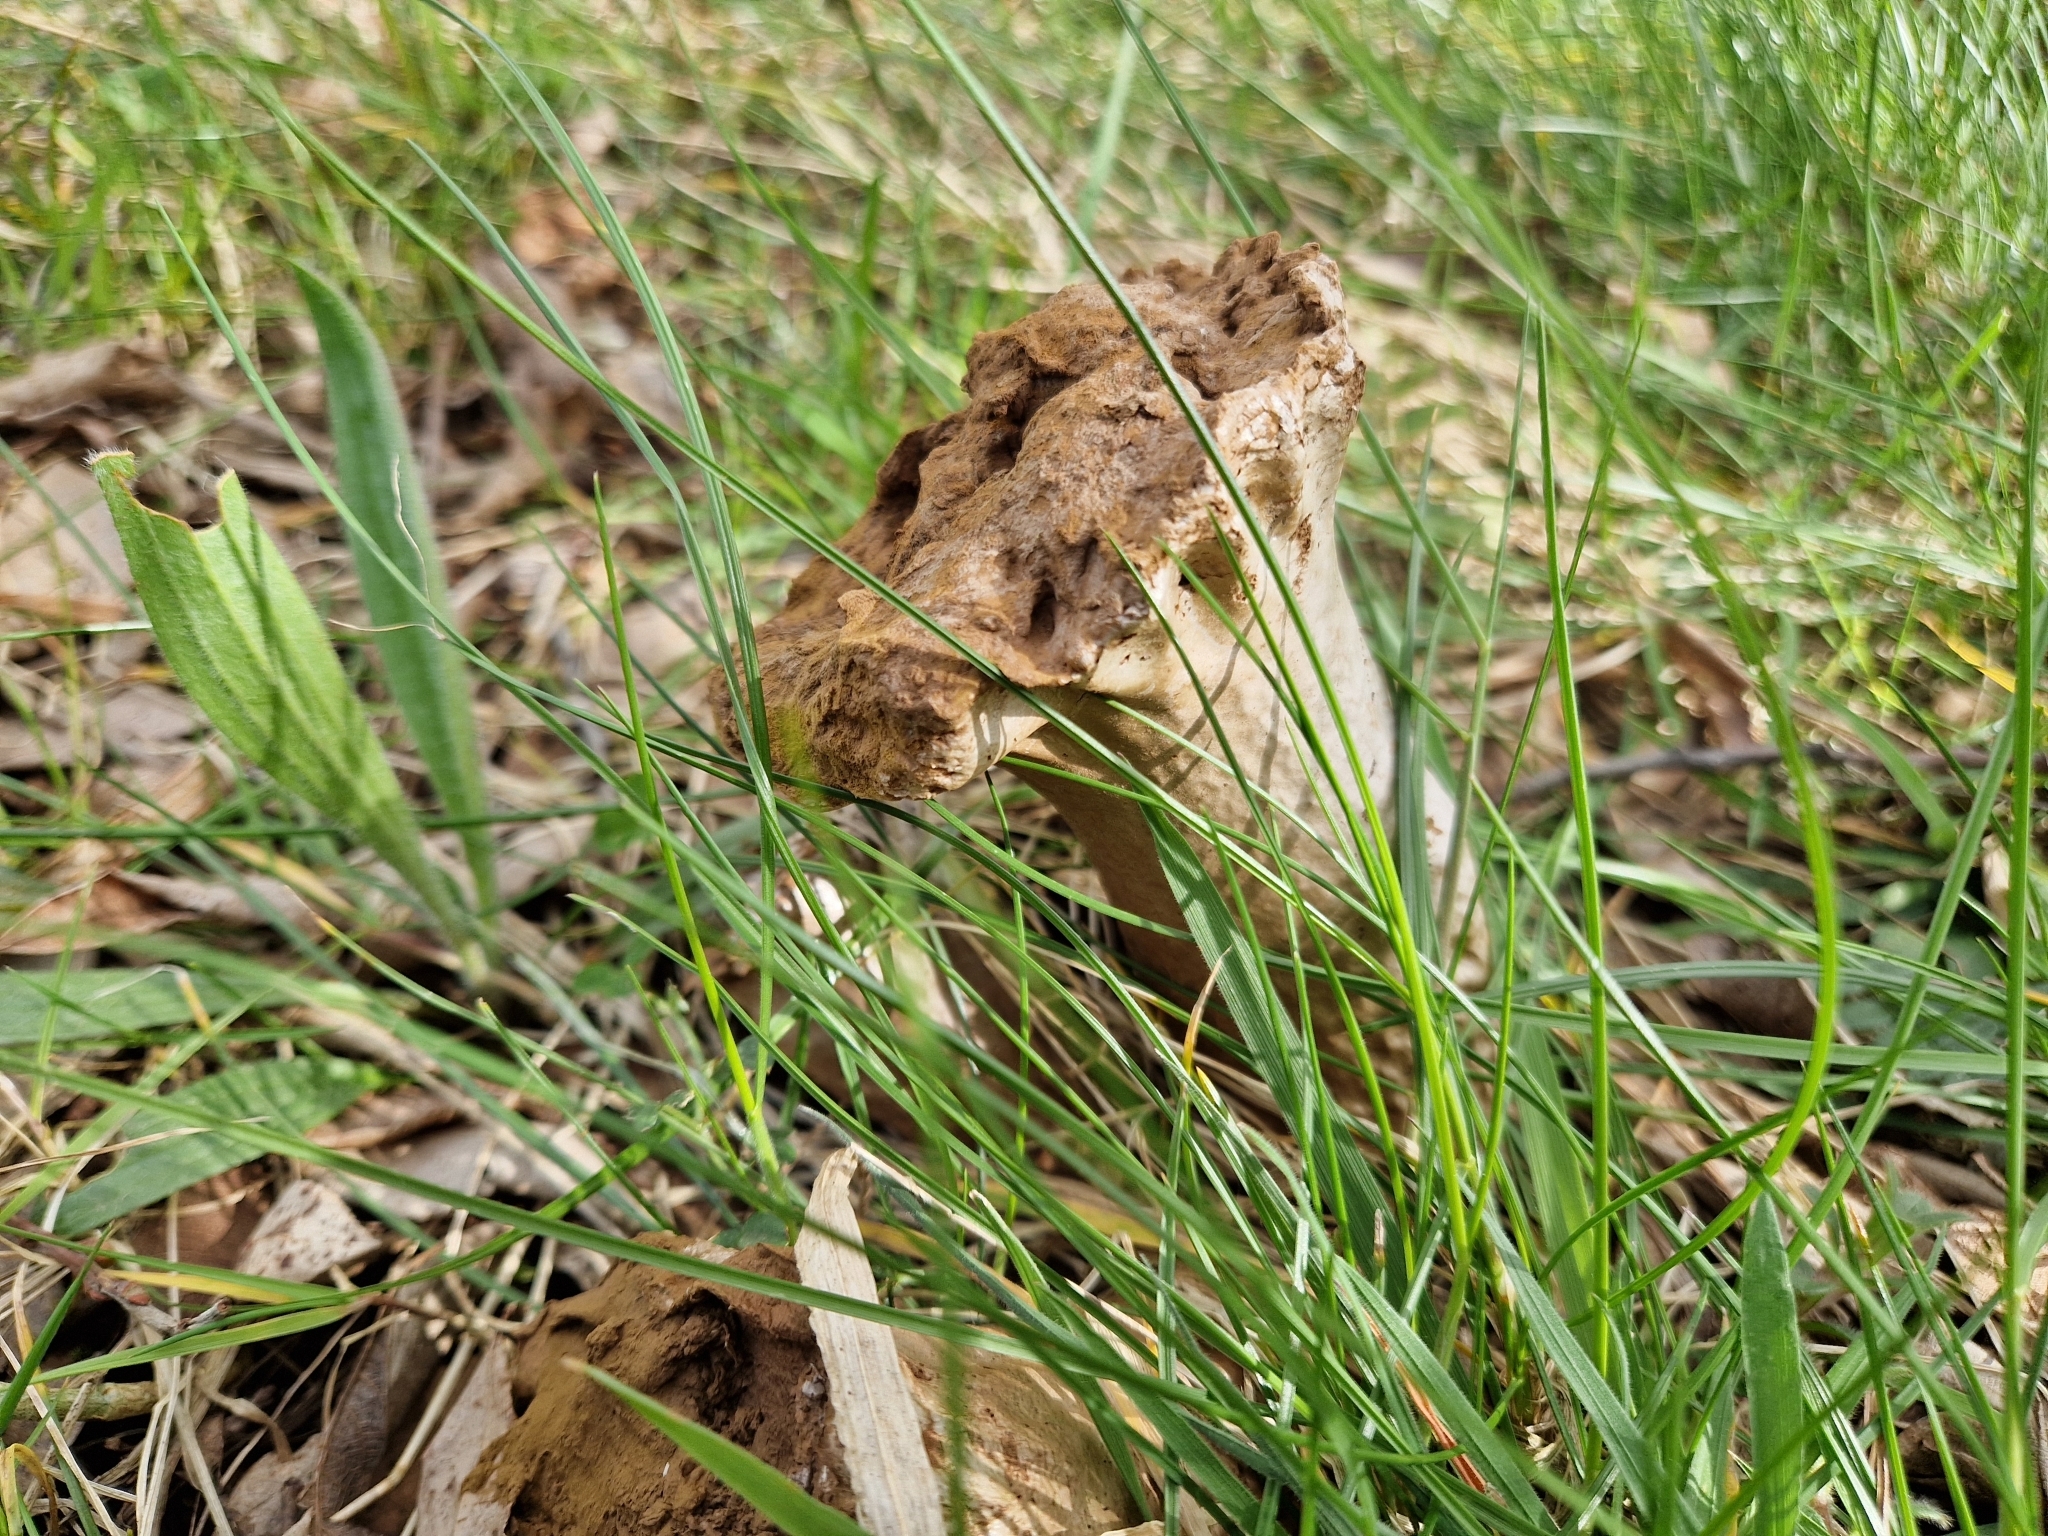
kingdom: Fungi
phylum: Basidiomycota
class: Agaricomycetes
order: Agaricales
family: Lycoperdaceae
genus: Lycoperdon
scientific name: Lycoperdon excipuliforme
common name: Pestle puffball
